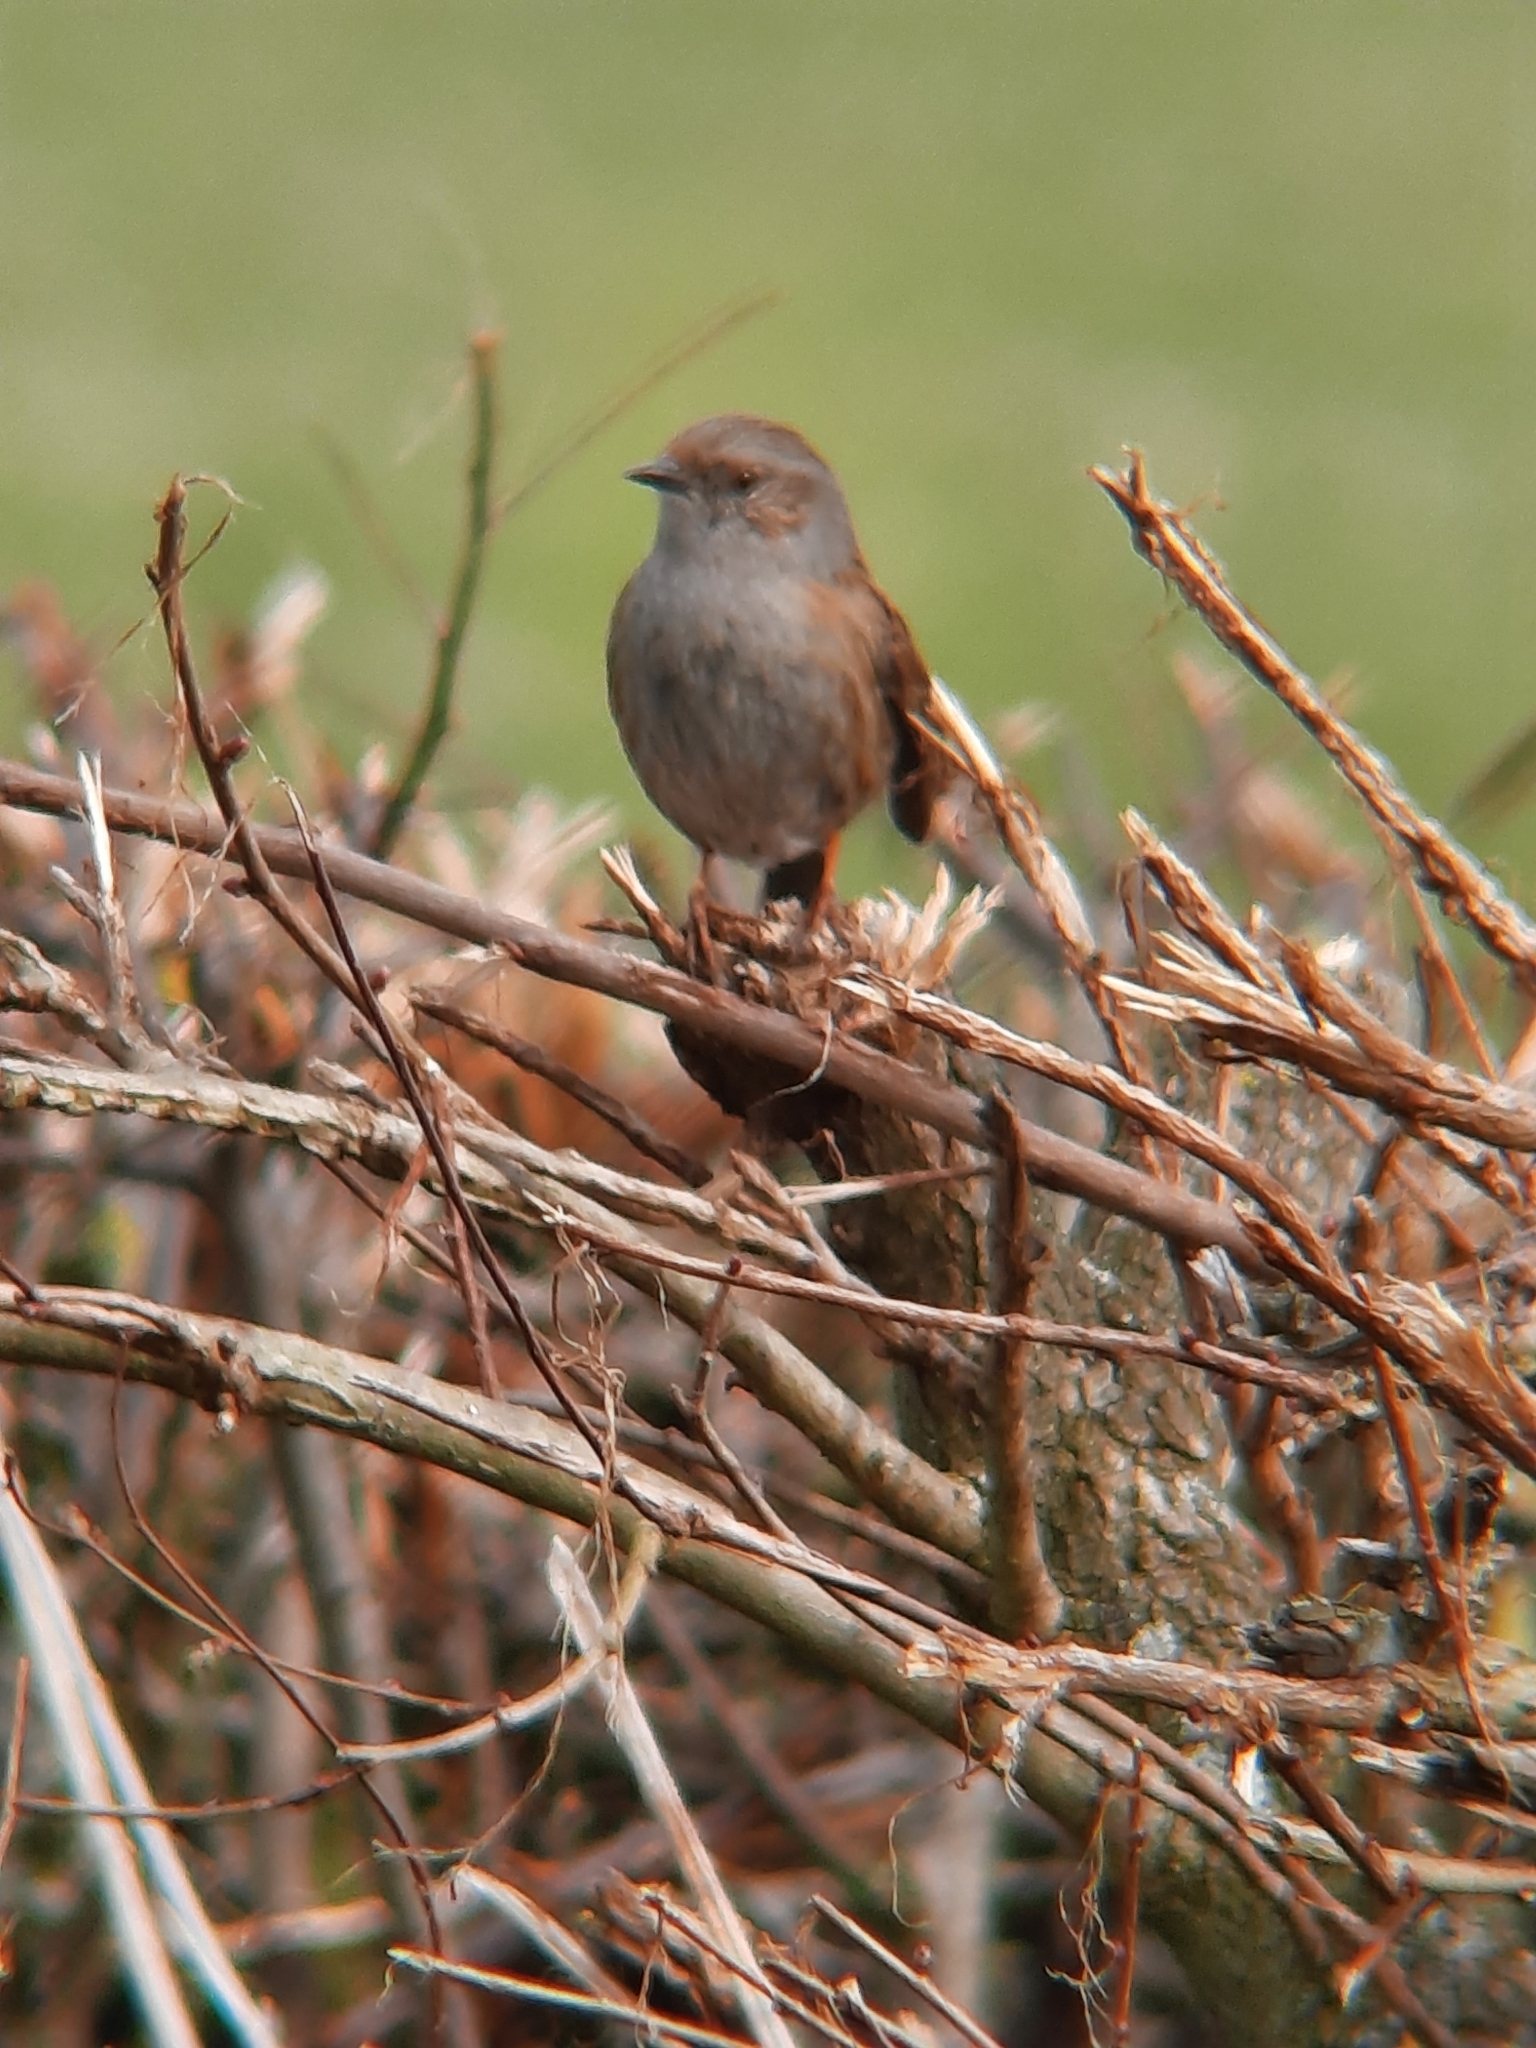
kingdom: Animalia
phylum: Chordata
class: Aves
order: Passeriformes
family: Prunellidae
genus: Prunella
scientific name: Prunella modularis
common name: Dunnock
